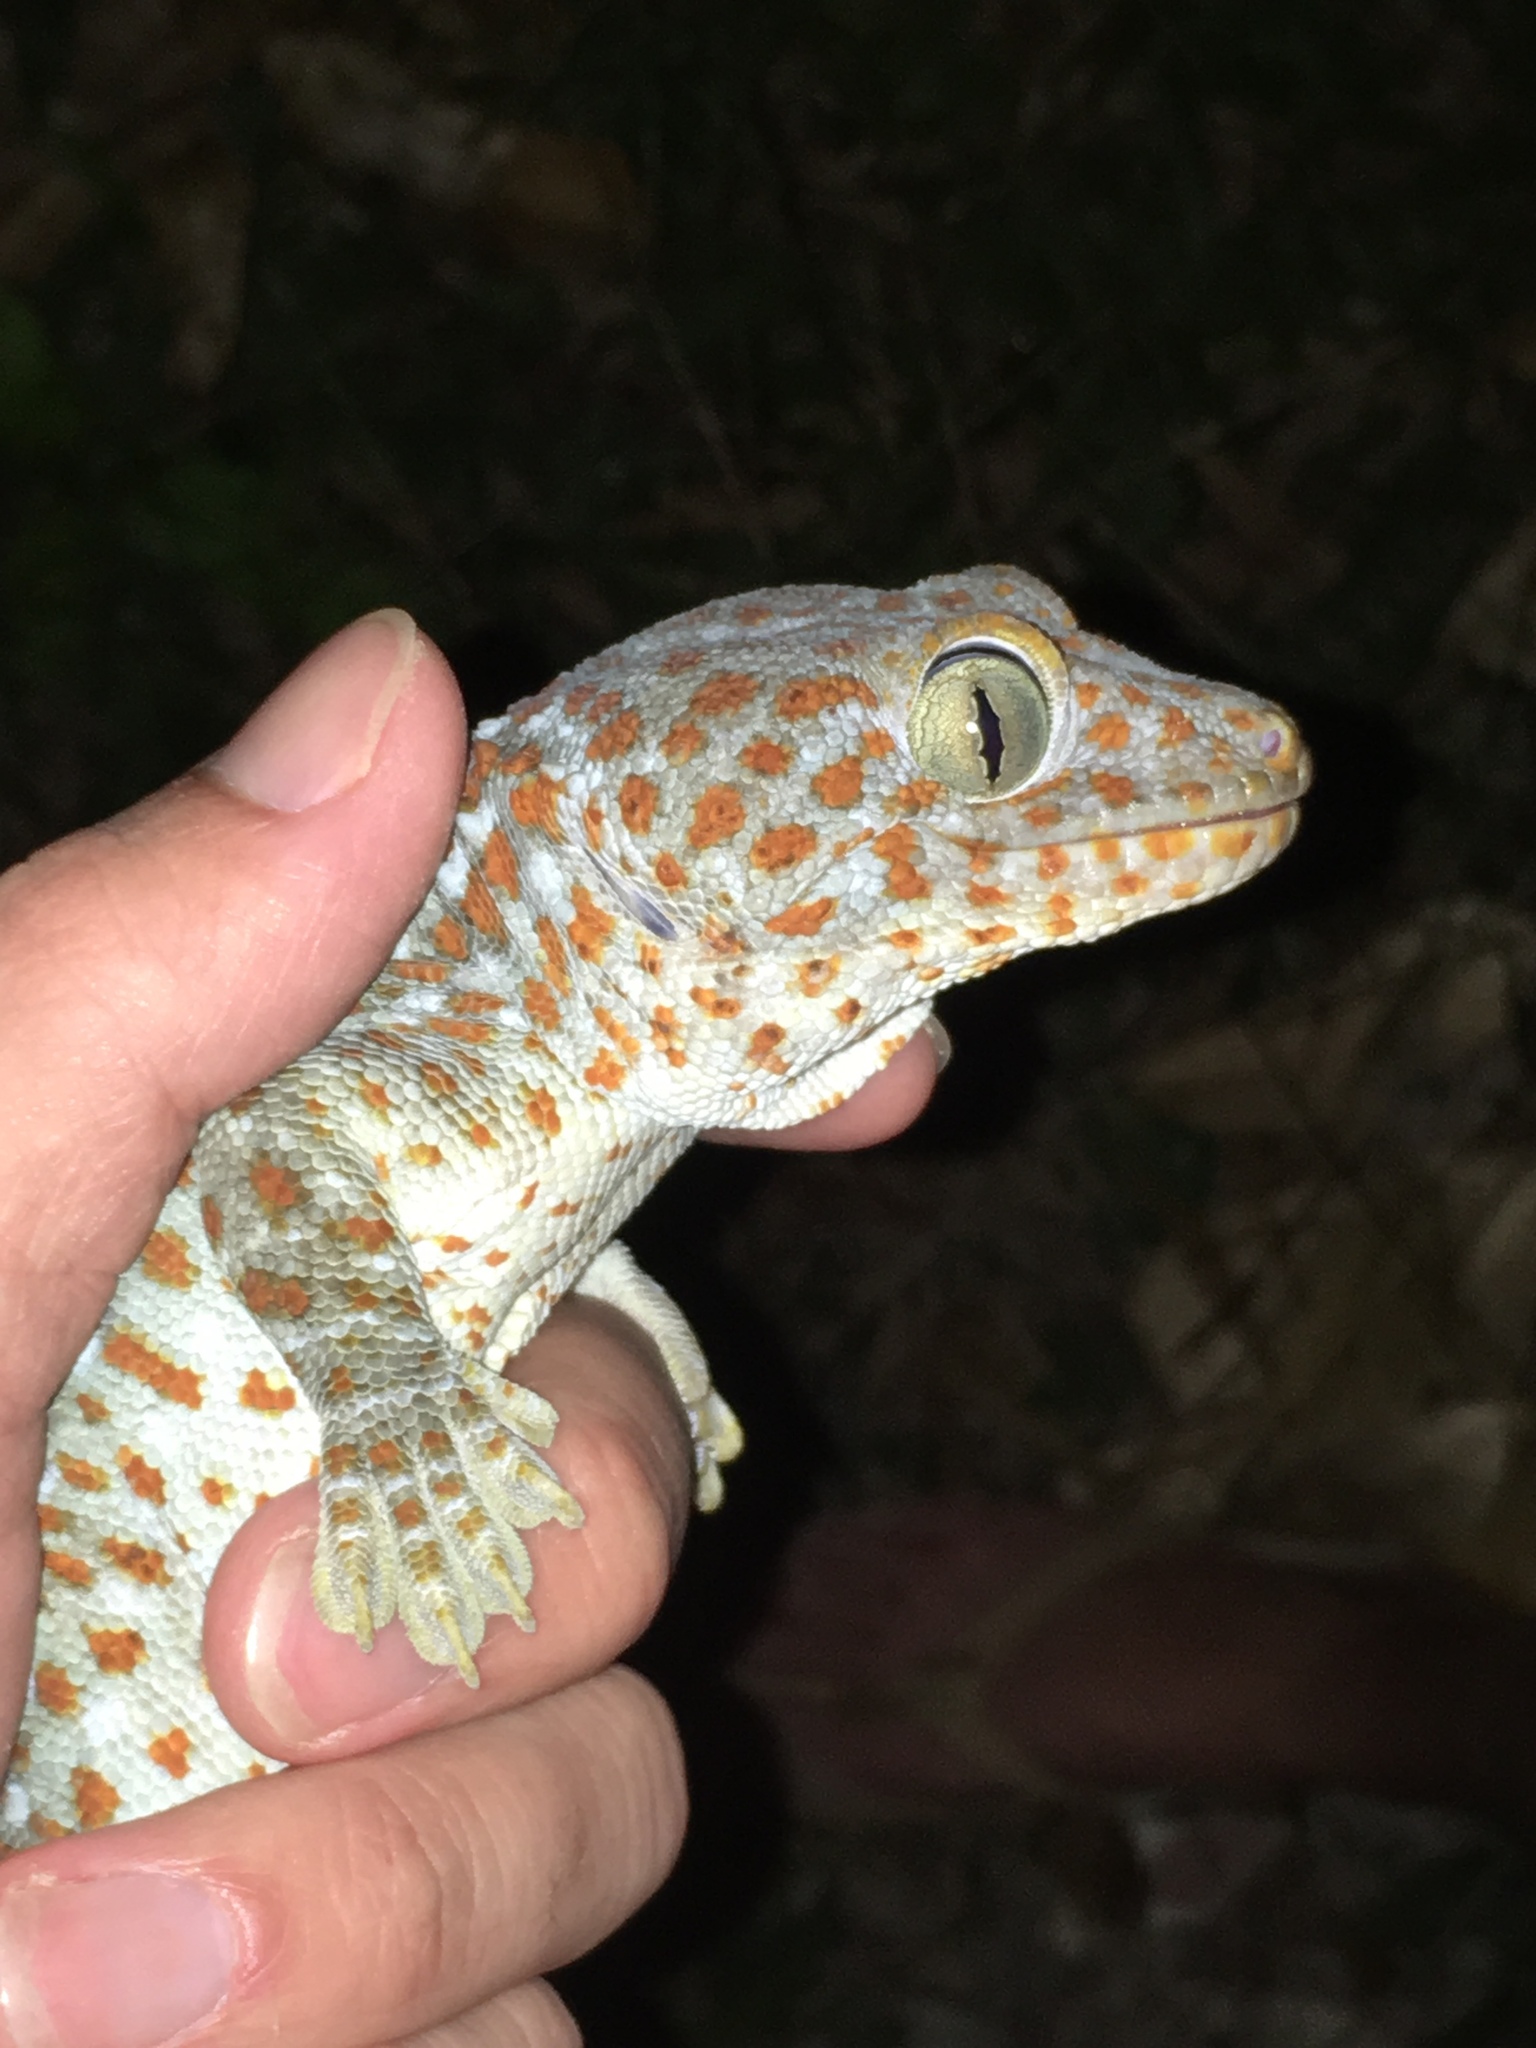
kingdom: Animalia
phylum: Chordata
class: Squamata
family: Gekkonidae
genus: Gekko
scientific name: Gekko gecko
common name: Tokay gecko
